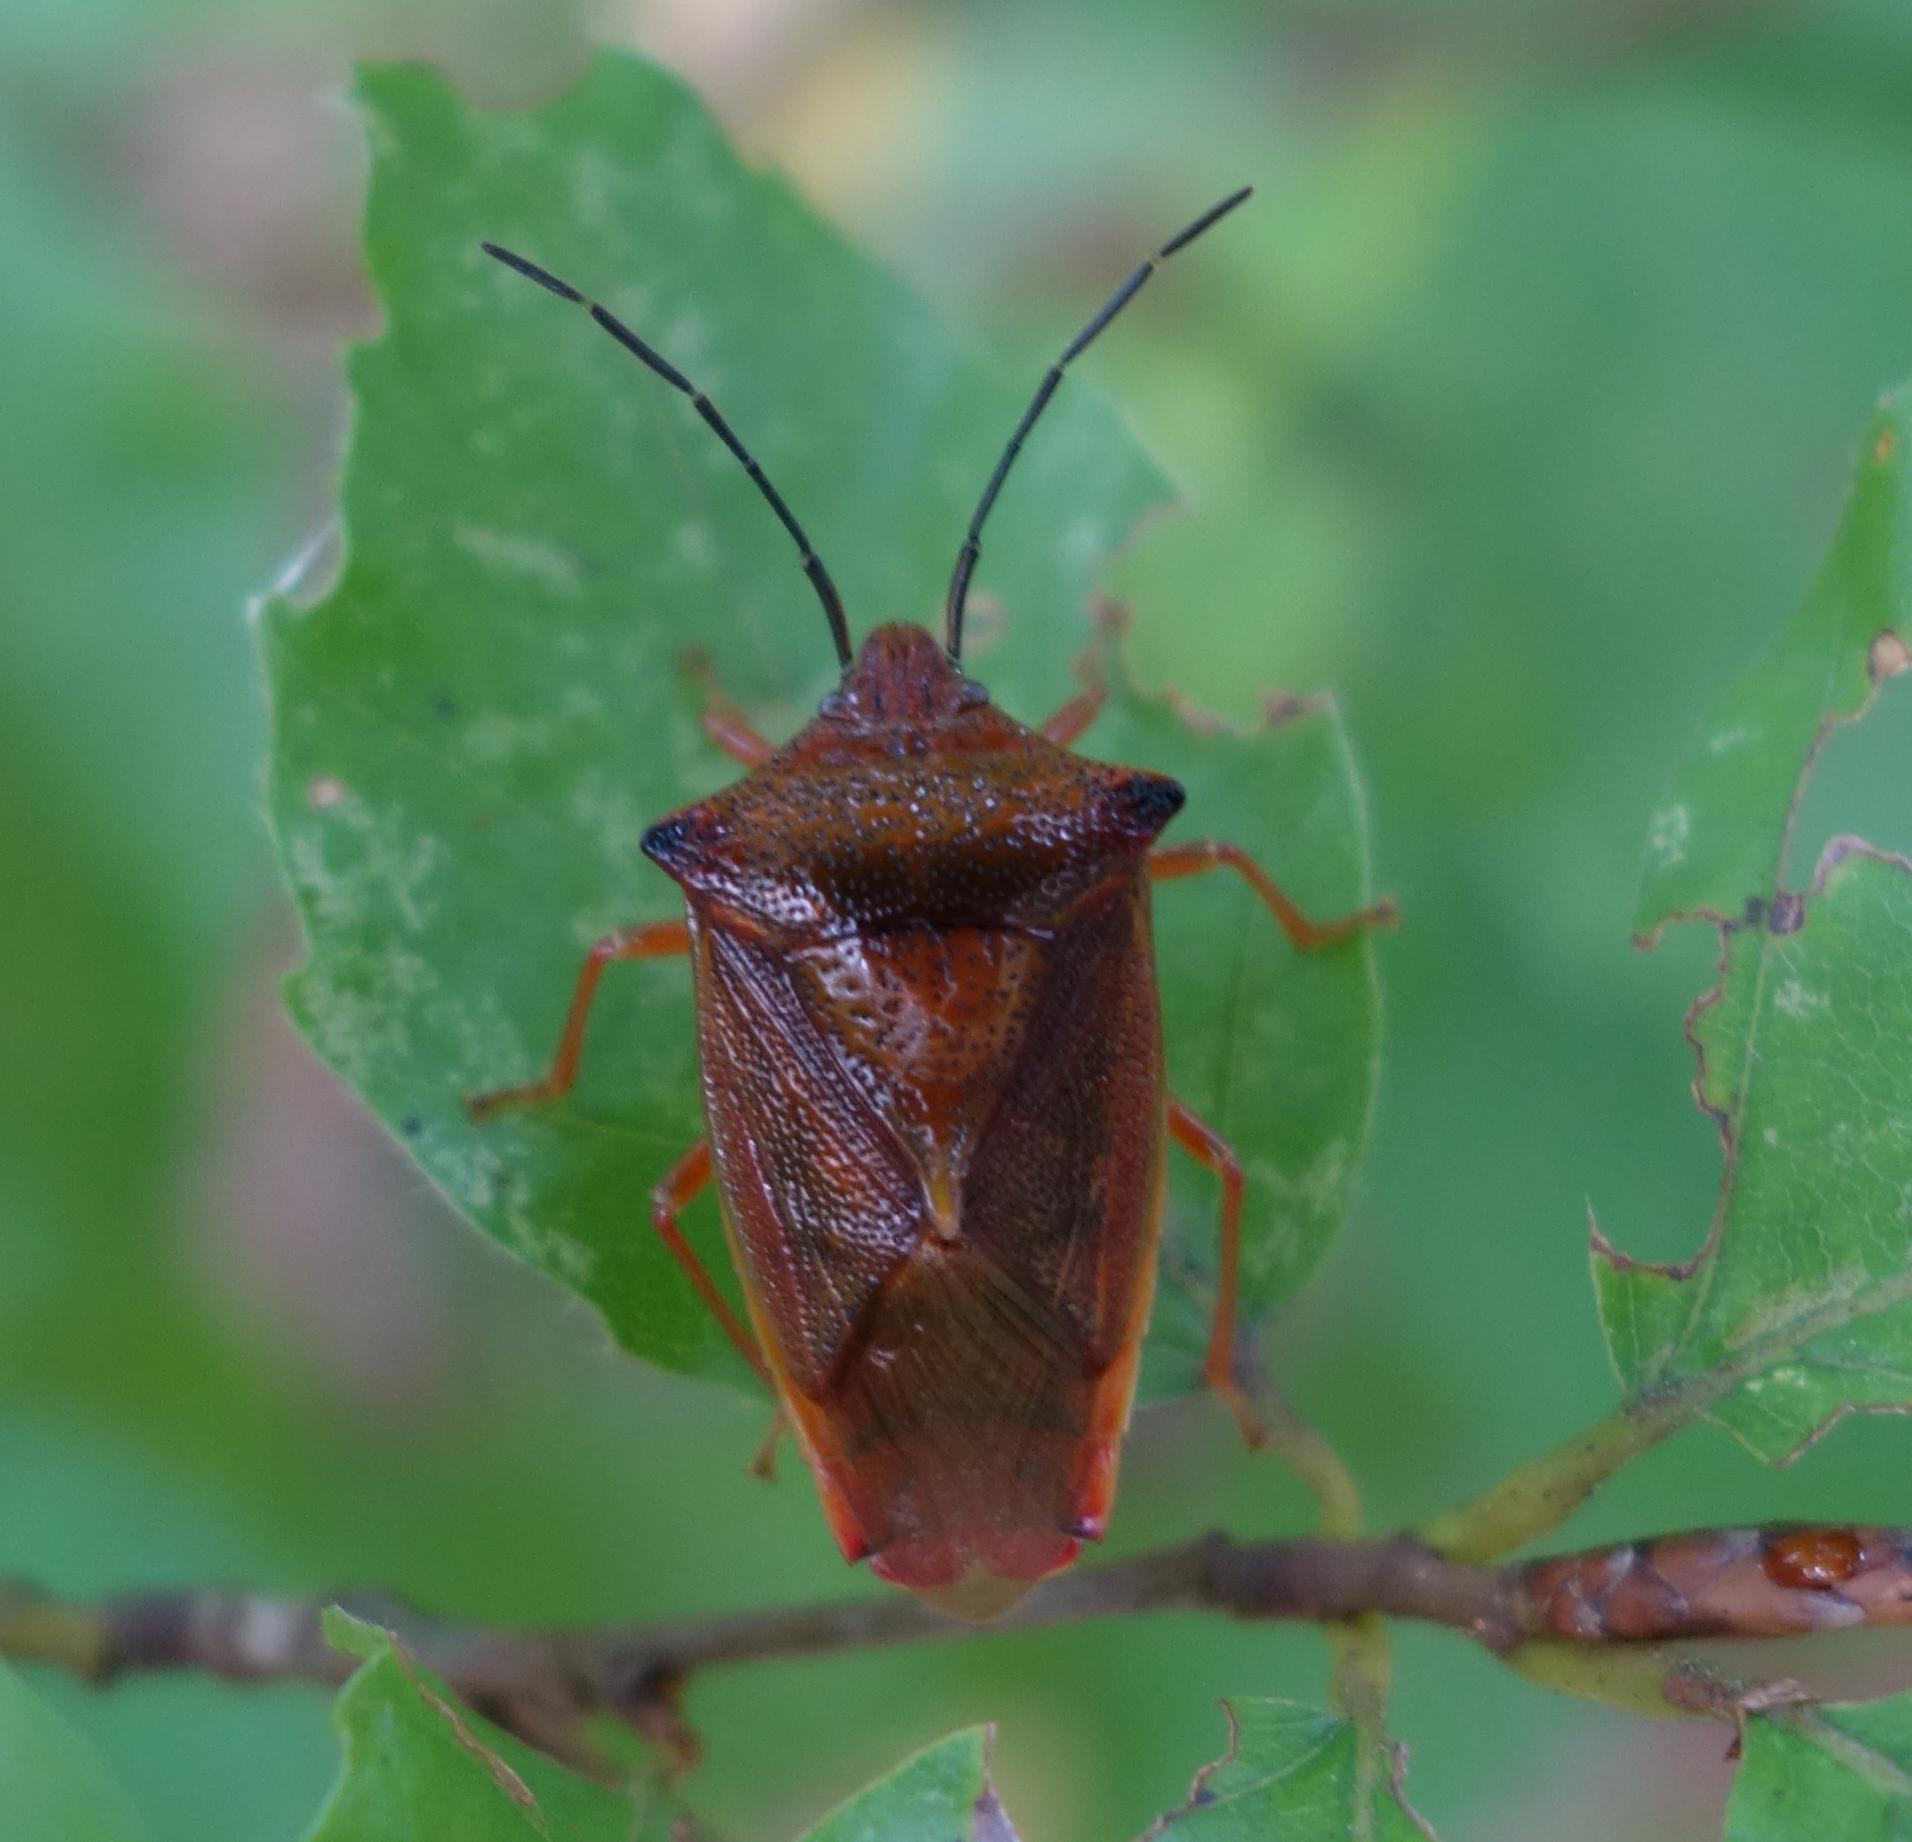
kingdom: Animalia
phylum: Arthropoda
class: Insecta
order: Hemiptera
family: Acanthosomatidae
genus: Acanthosoma
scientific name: Acanthosoma haemorrhoidale
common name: Hawthorn shieldbug
